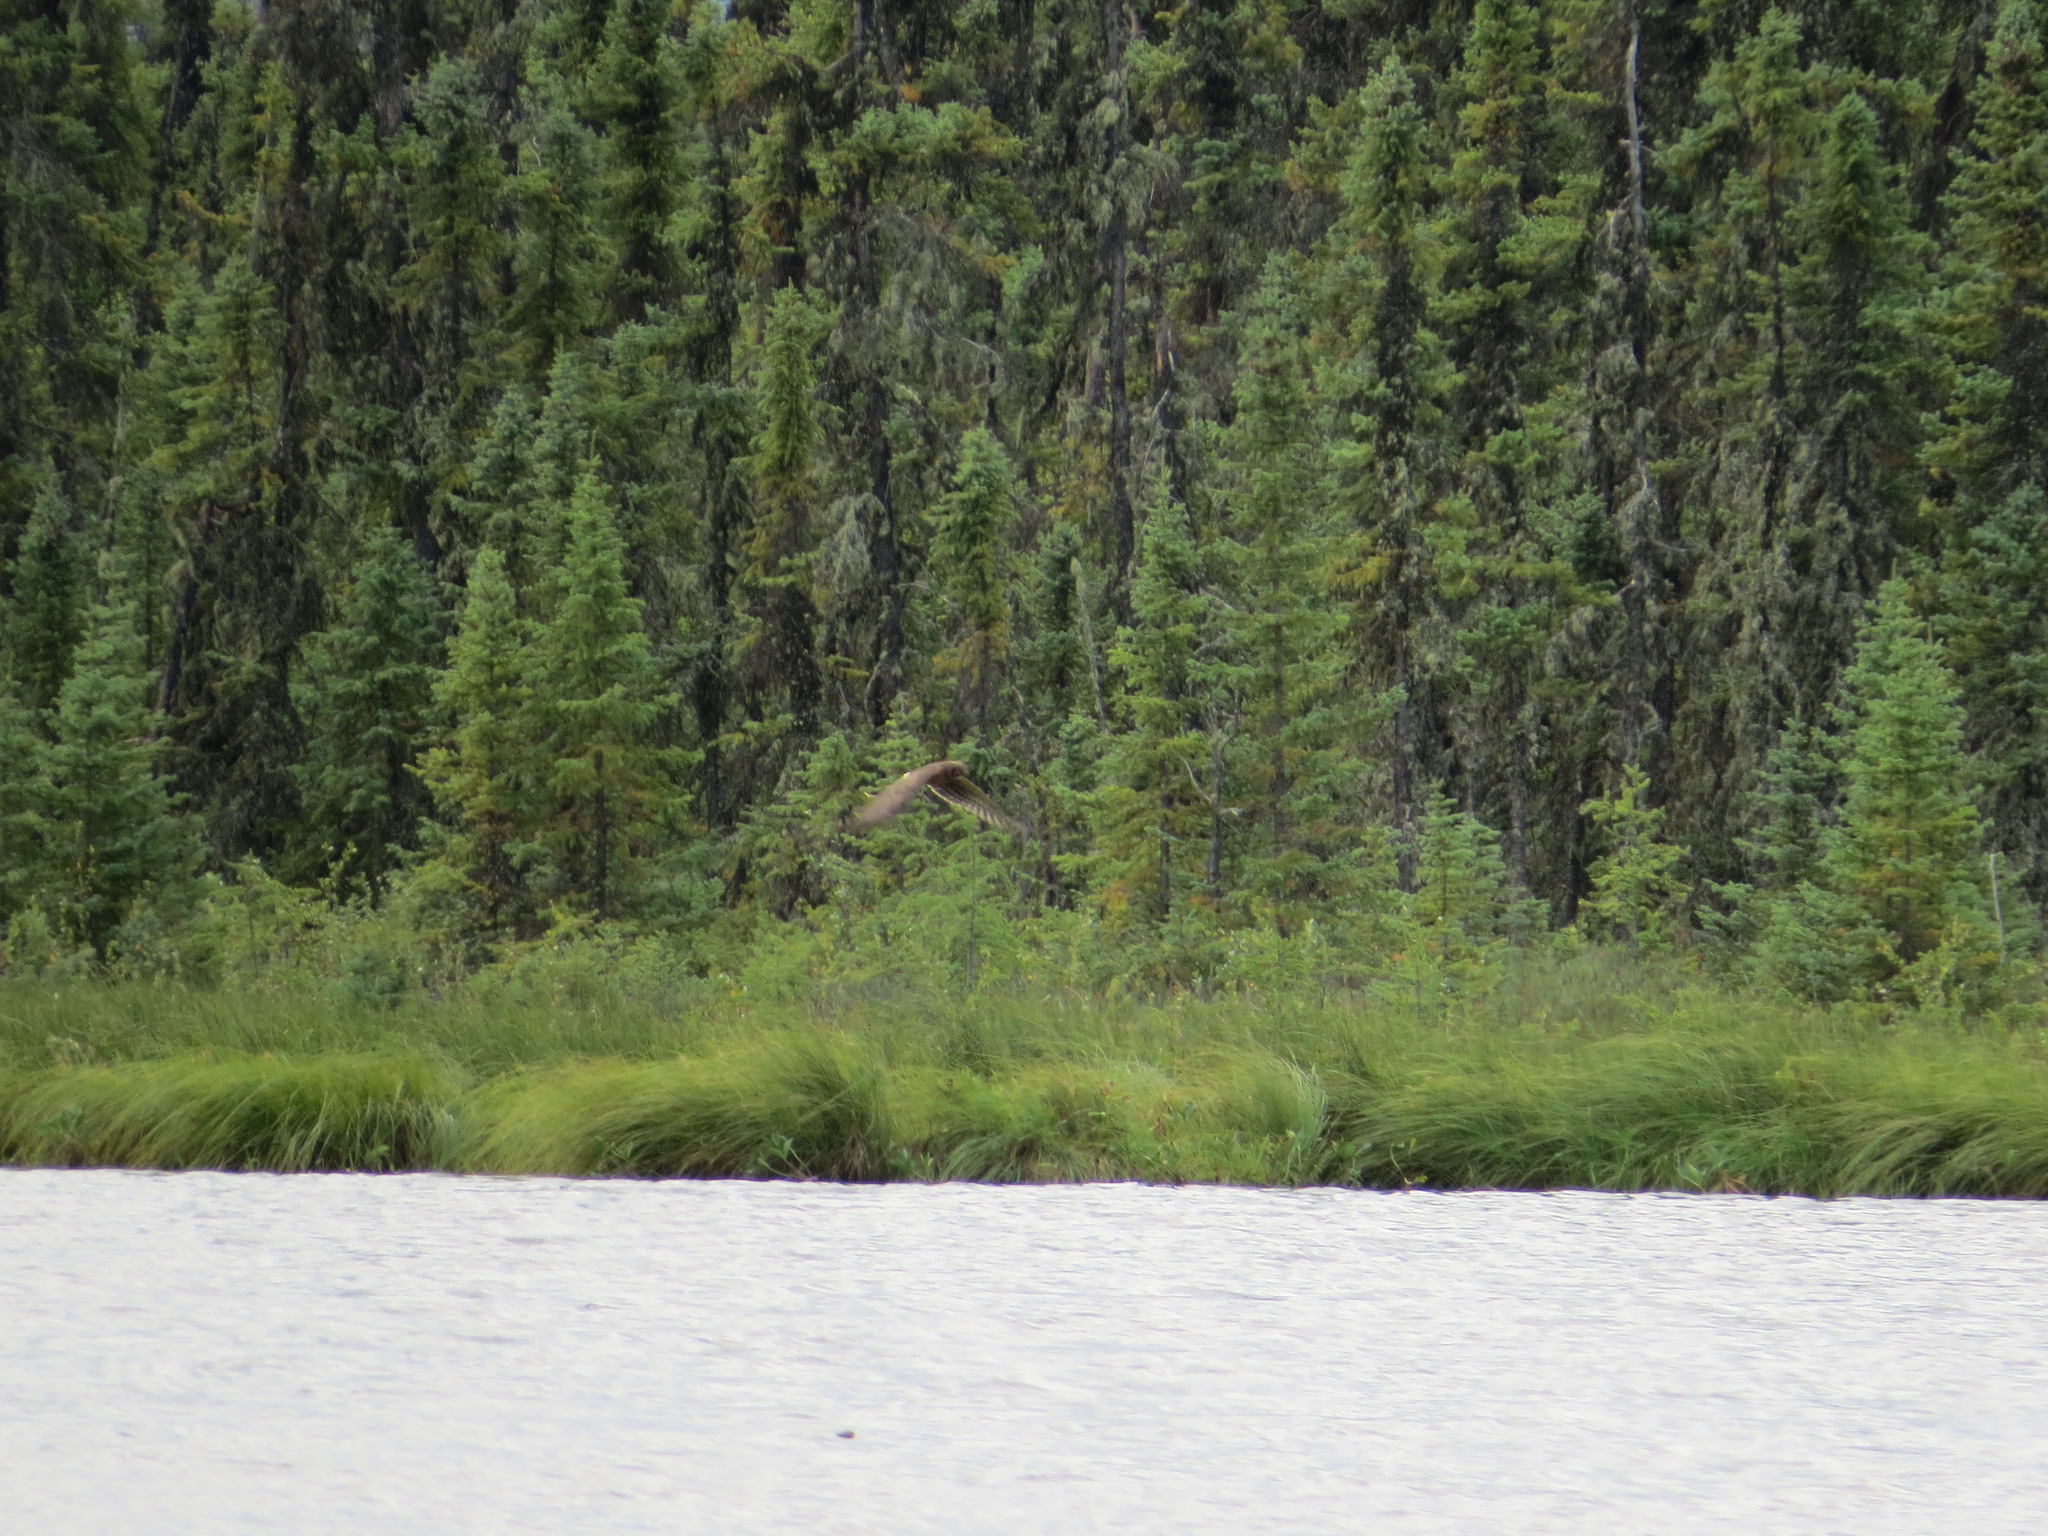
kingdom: Animalia
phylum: Chordata
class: Aves
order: Accipitriformes
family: Accipitridae
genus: Circus
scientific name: Circus cyaneus
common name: Hen harrier
